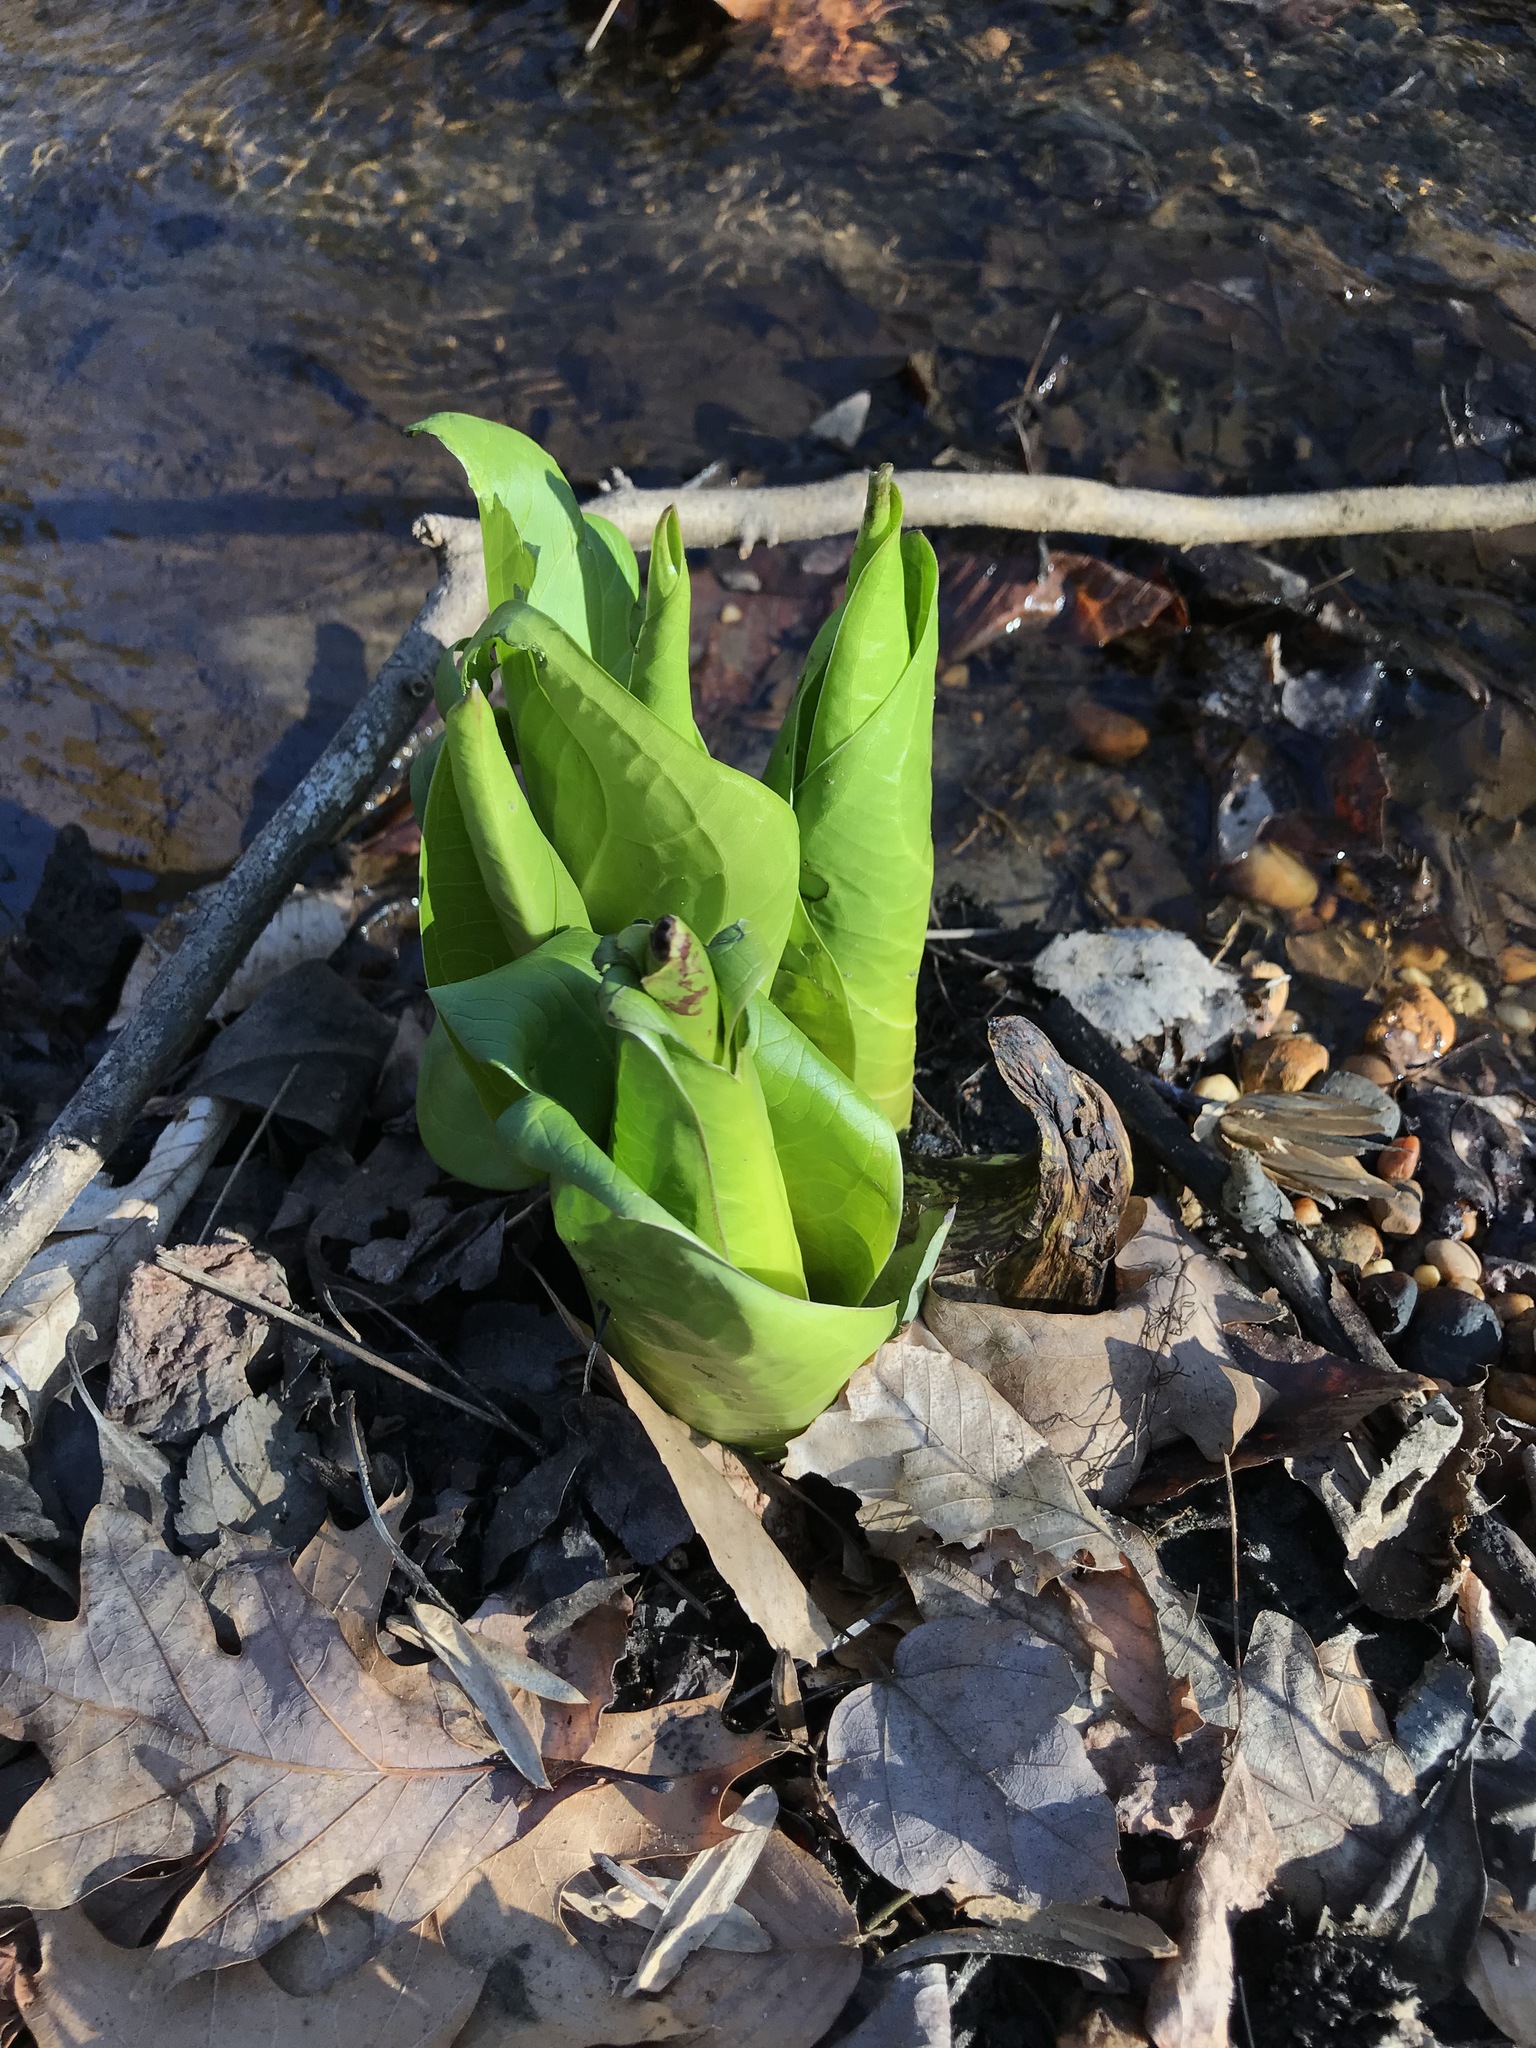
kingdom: Plantae
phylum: Tracheophyta
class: Liliopsida
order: Alismatales
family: Araceae
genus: Symplocarpus
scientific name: Symplocarpus foetidus
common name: Eastern skunk cabbage
